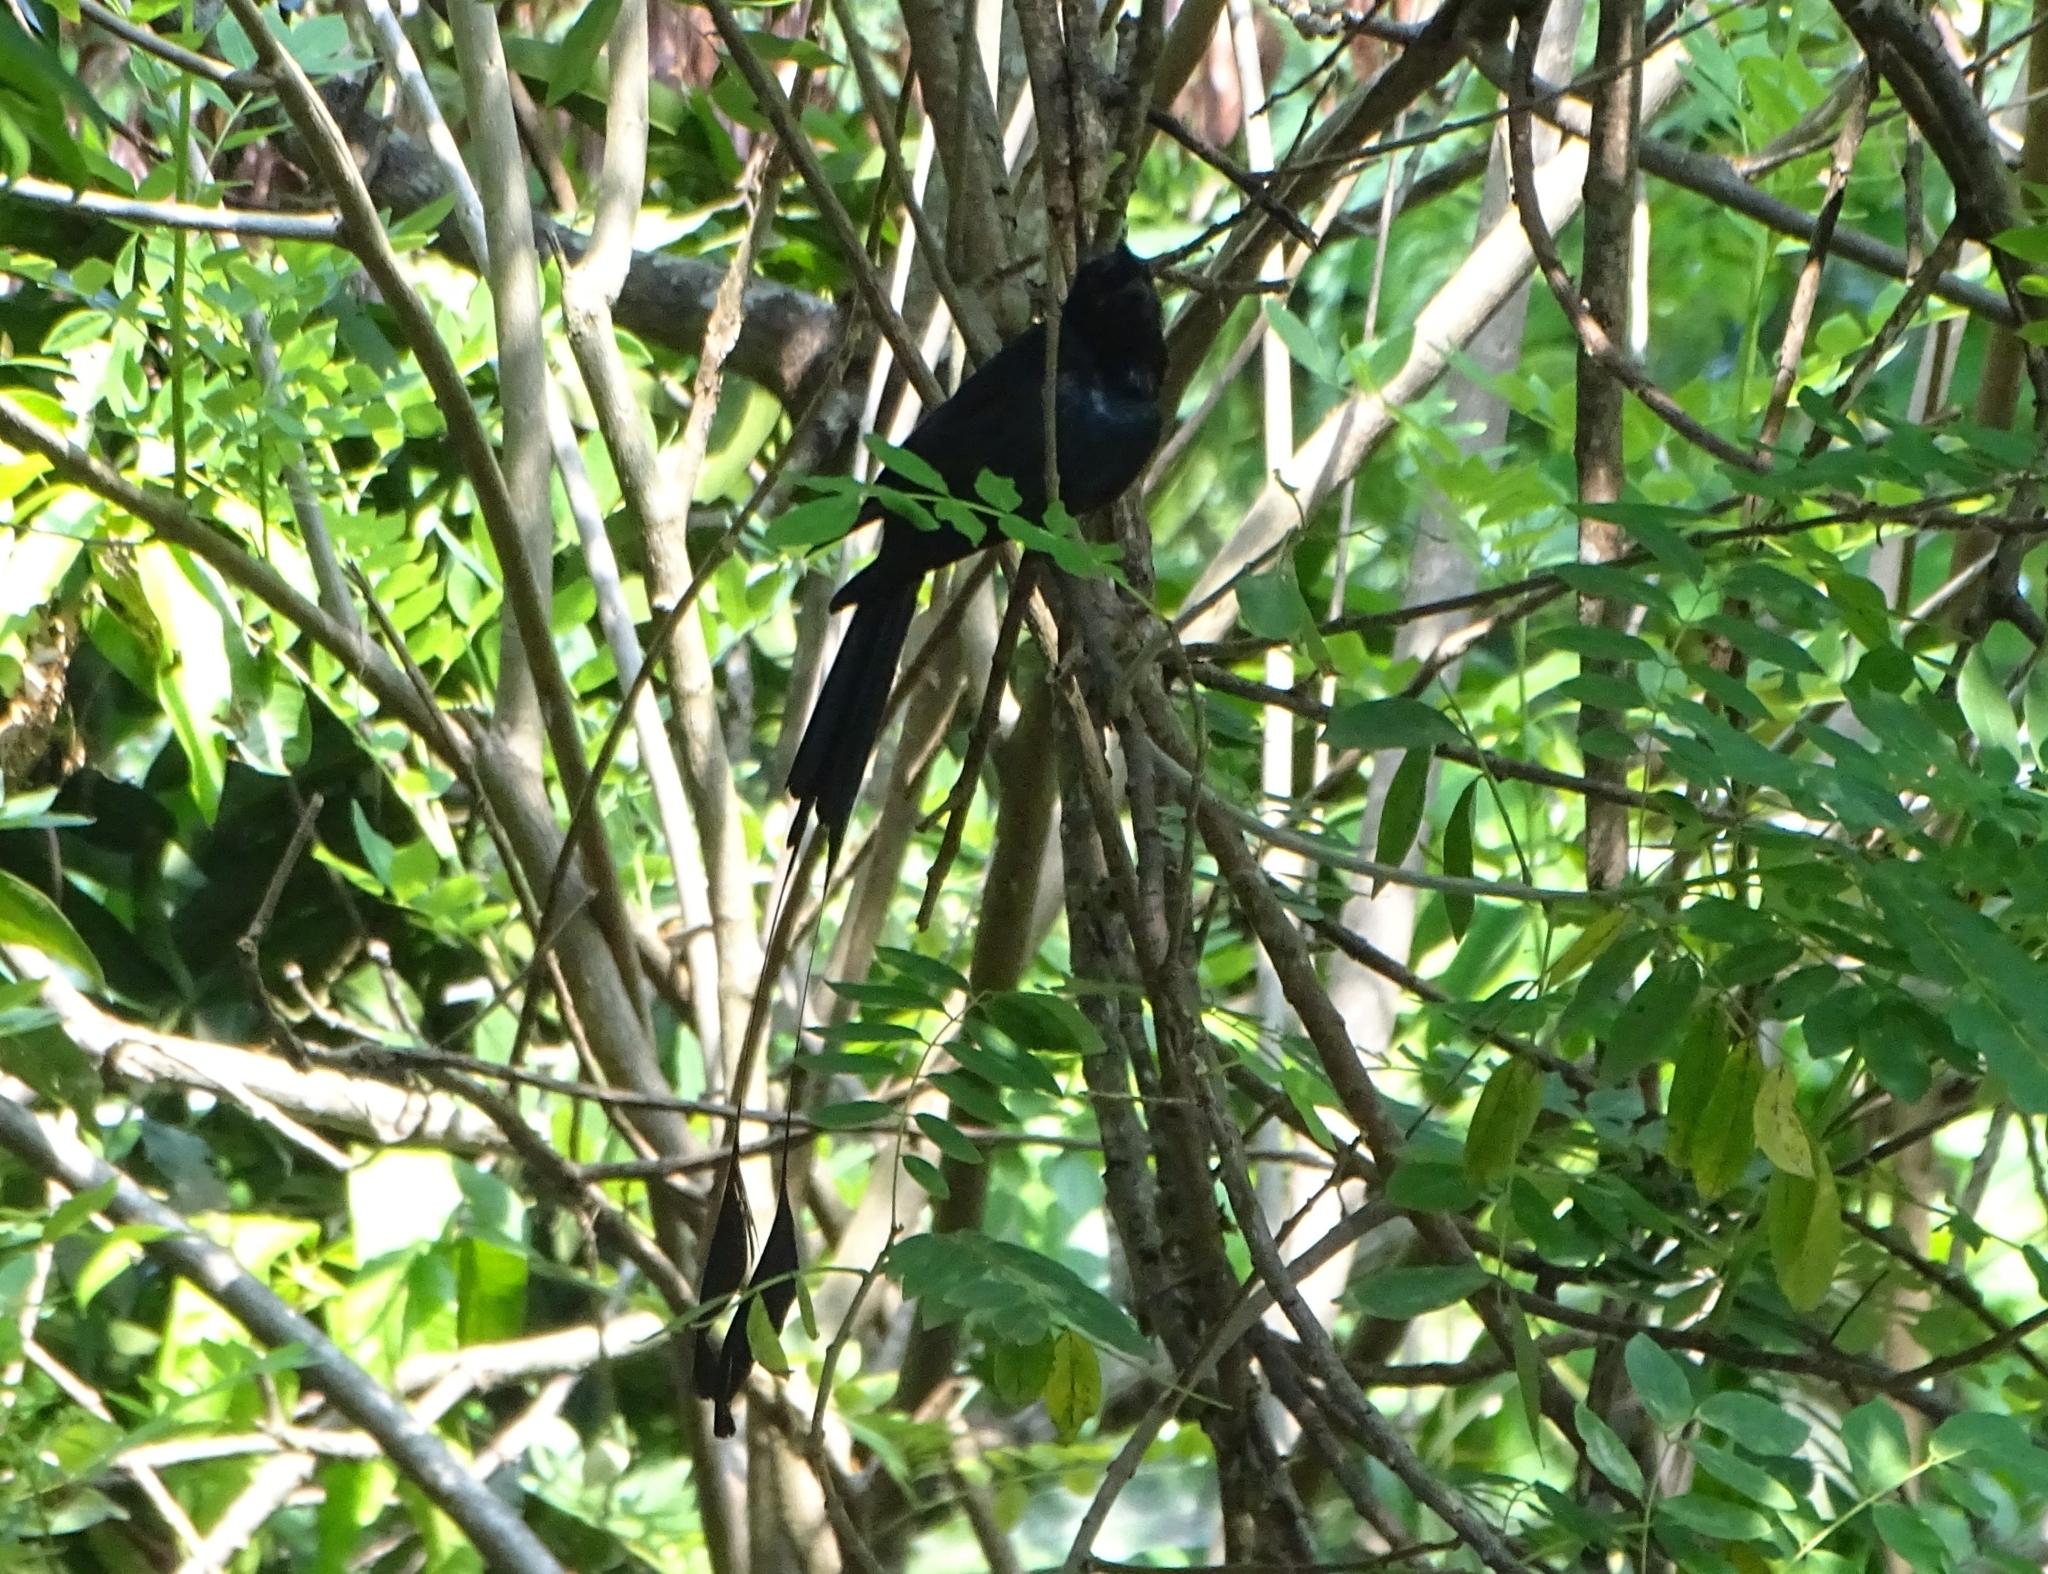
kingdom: Animalia
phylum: Chordata
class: Aves
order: Passeriformes
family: Dicruridae
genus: Dicrurus
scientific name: Dicrurus paradiseus
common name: Greater racket-tailed drongo
